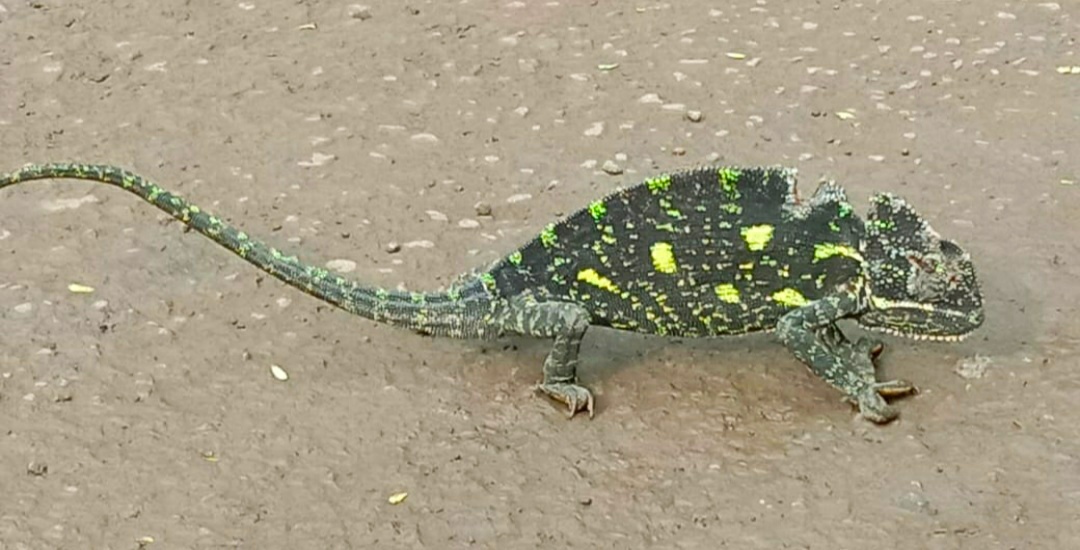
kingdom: Animalia
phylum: Chordata
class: Squamata
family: Chamaeleonidae
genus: Chamaeleo
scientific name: Chamaeleo zeylanicus
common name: Indian chameleon
